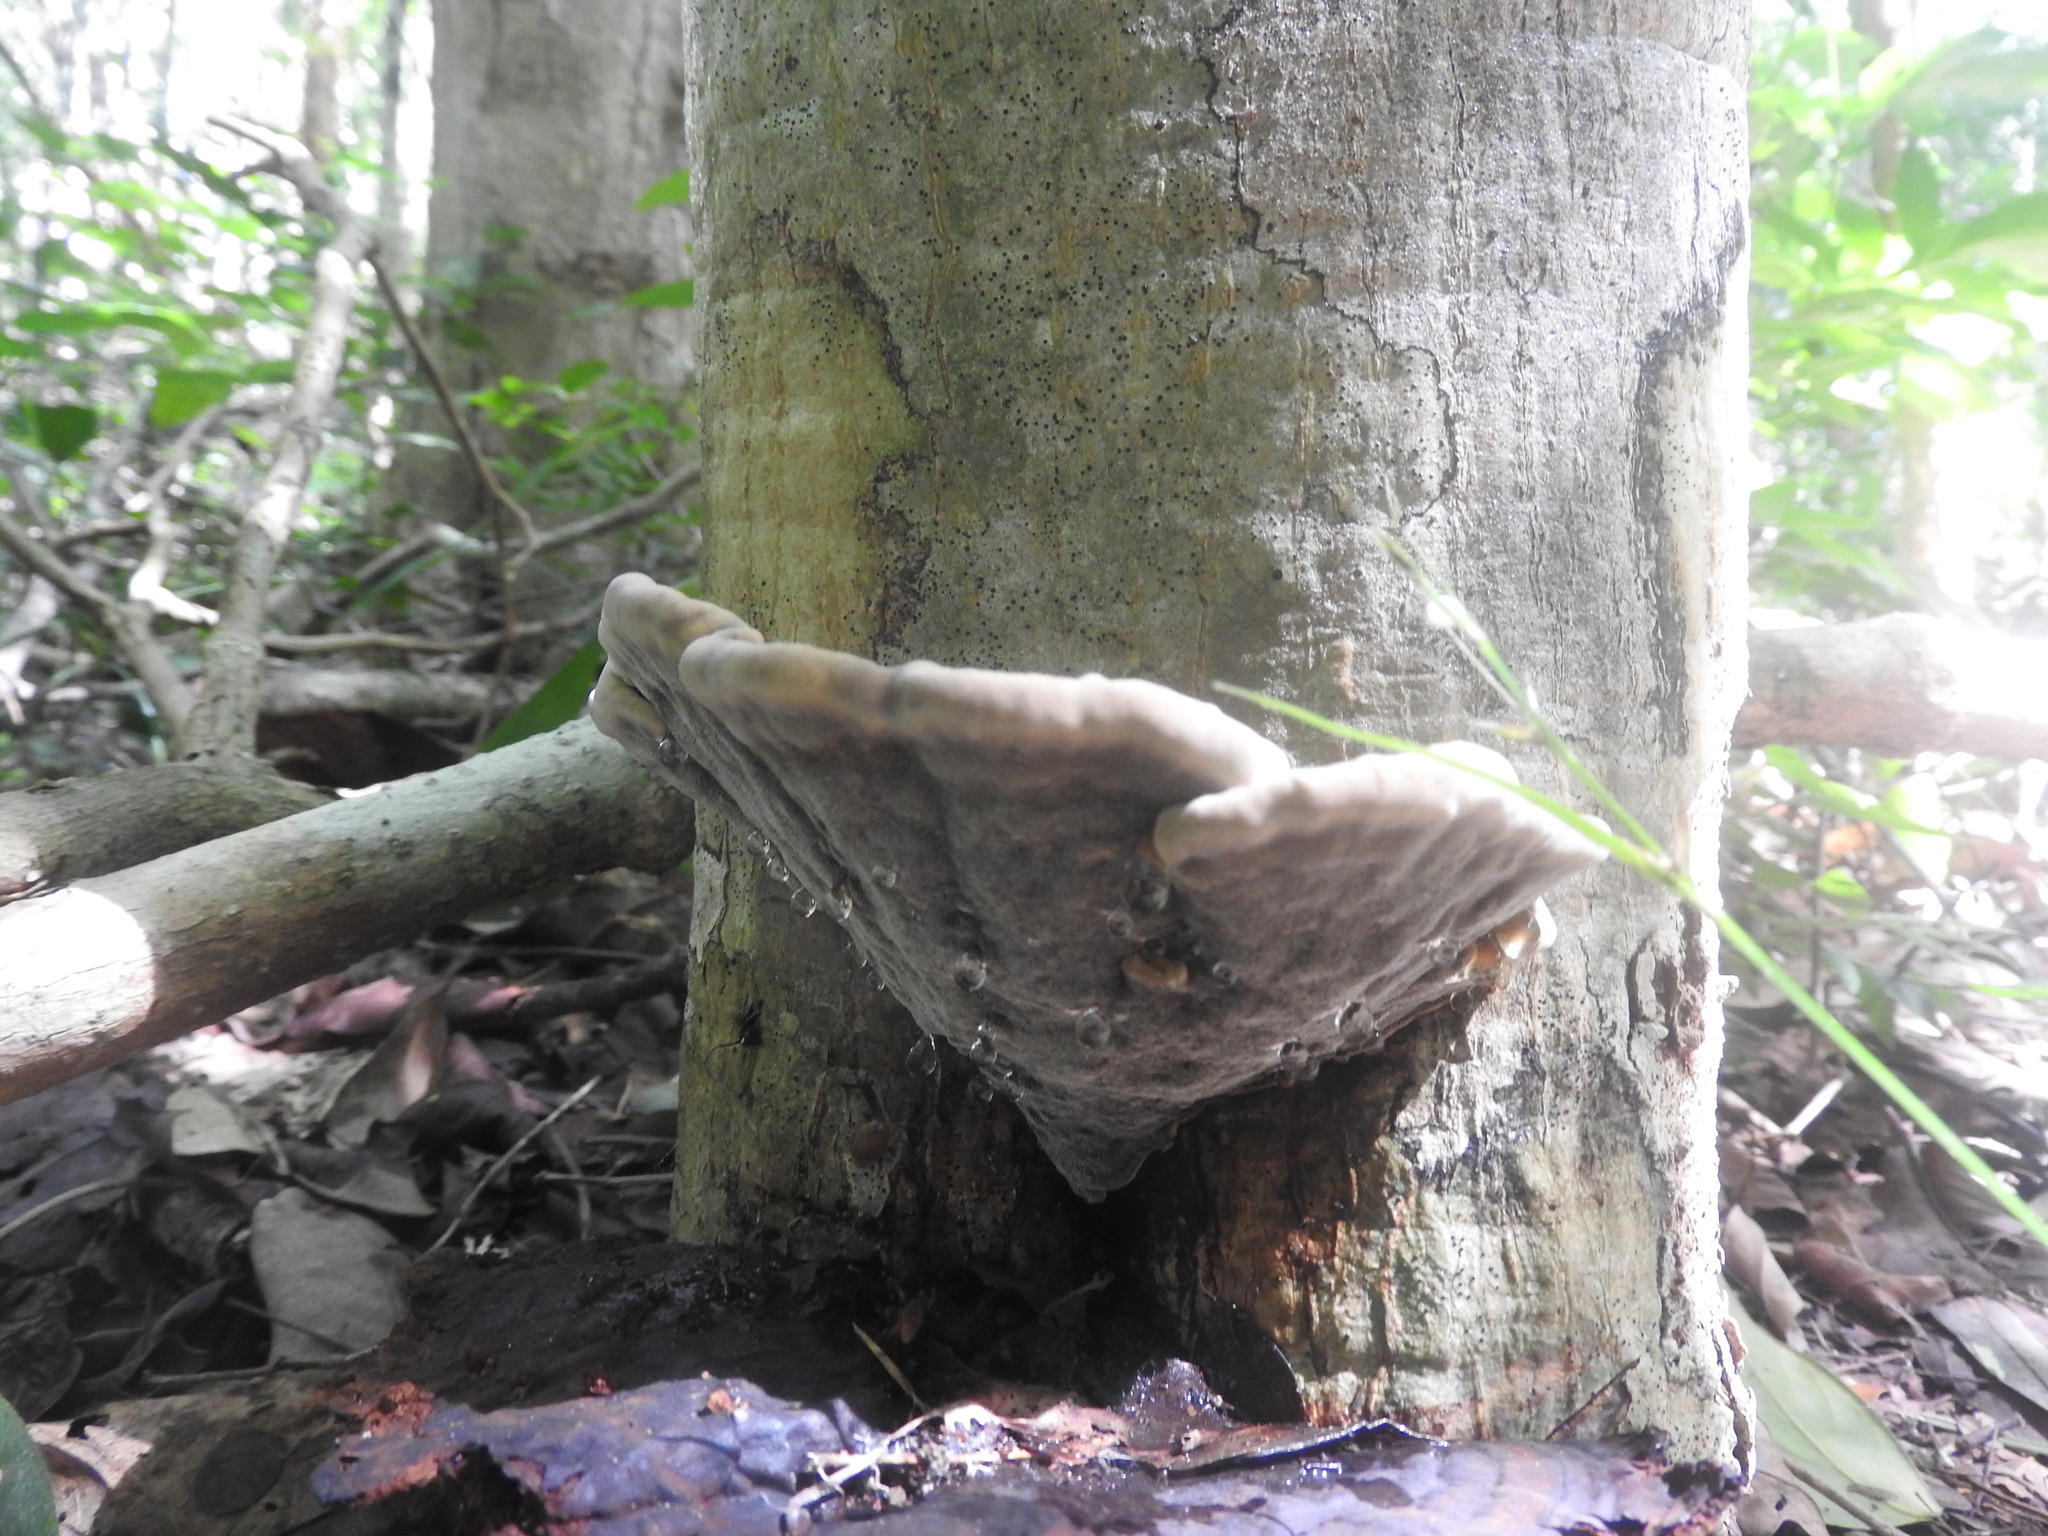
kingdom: Fungi
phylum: Basidiomycota
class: Agaricomycetes
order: Polyporales
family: Polyporaceae
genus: Ganoderma
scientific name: Ganoderma resinaceum
